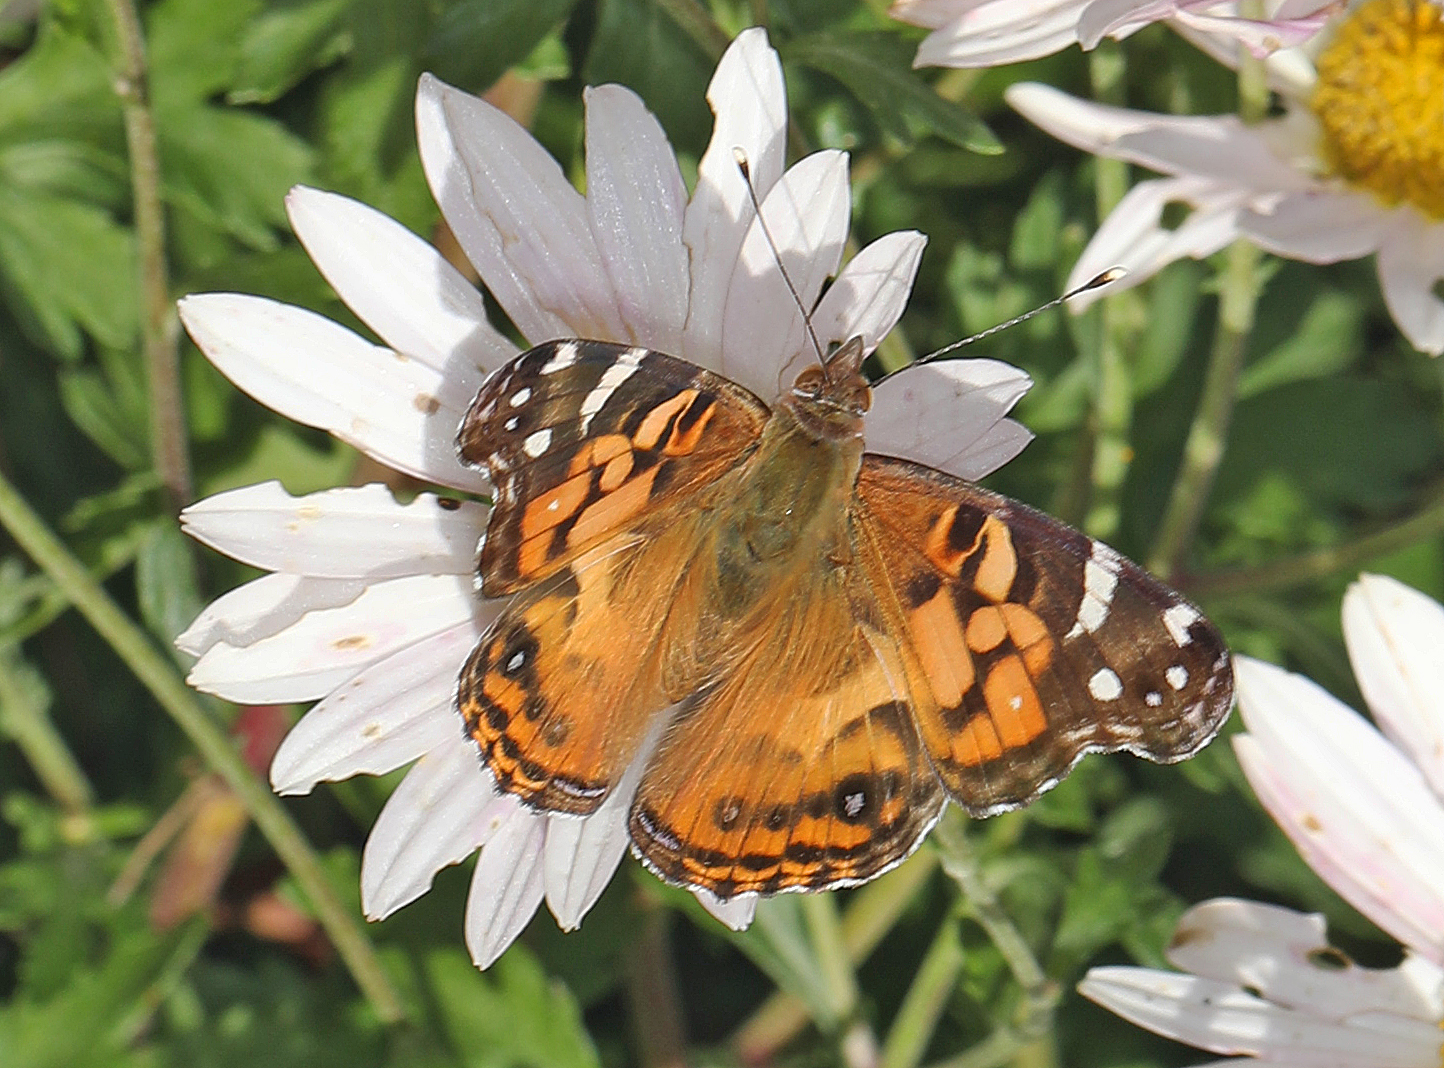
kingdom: Animalia
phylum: Arthropoda
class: Insecta
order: Lepidoptera
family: Nymphalidae
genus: Vanessa
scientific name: Vanessa virginiensis
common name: American lady
